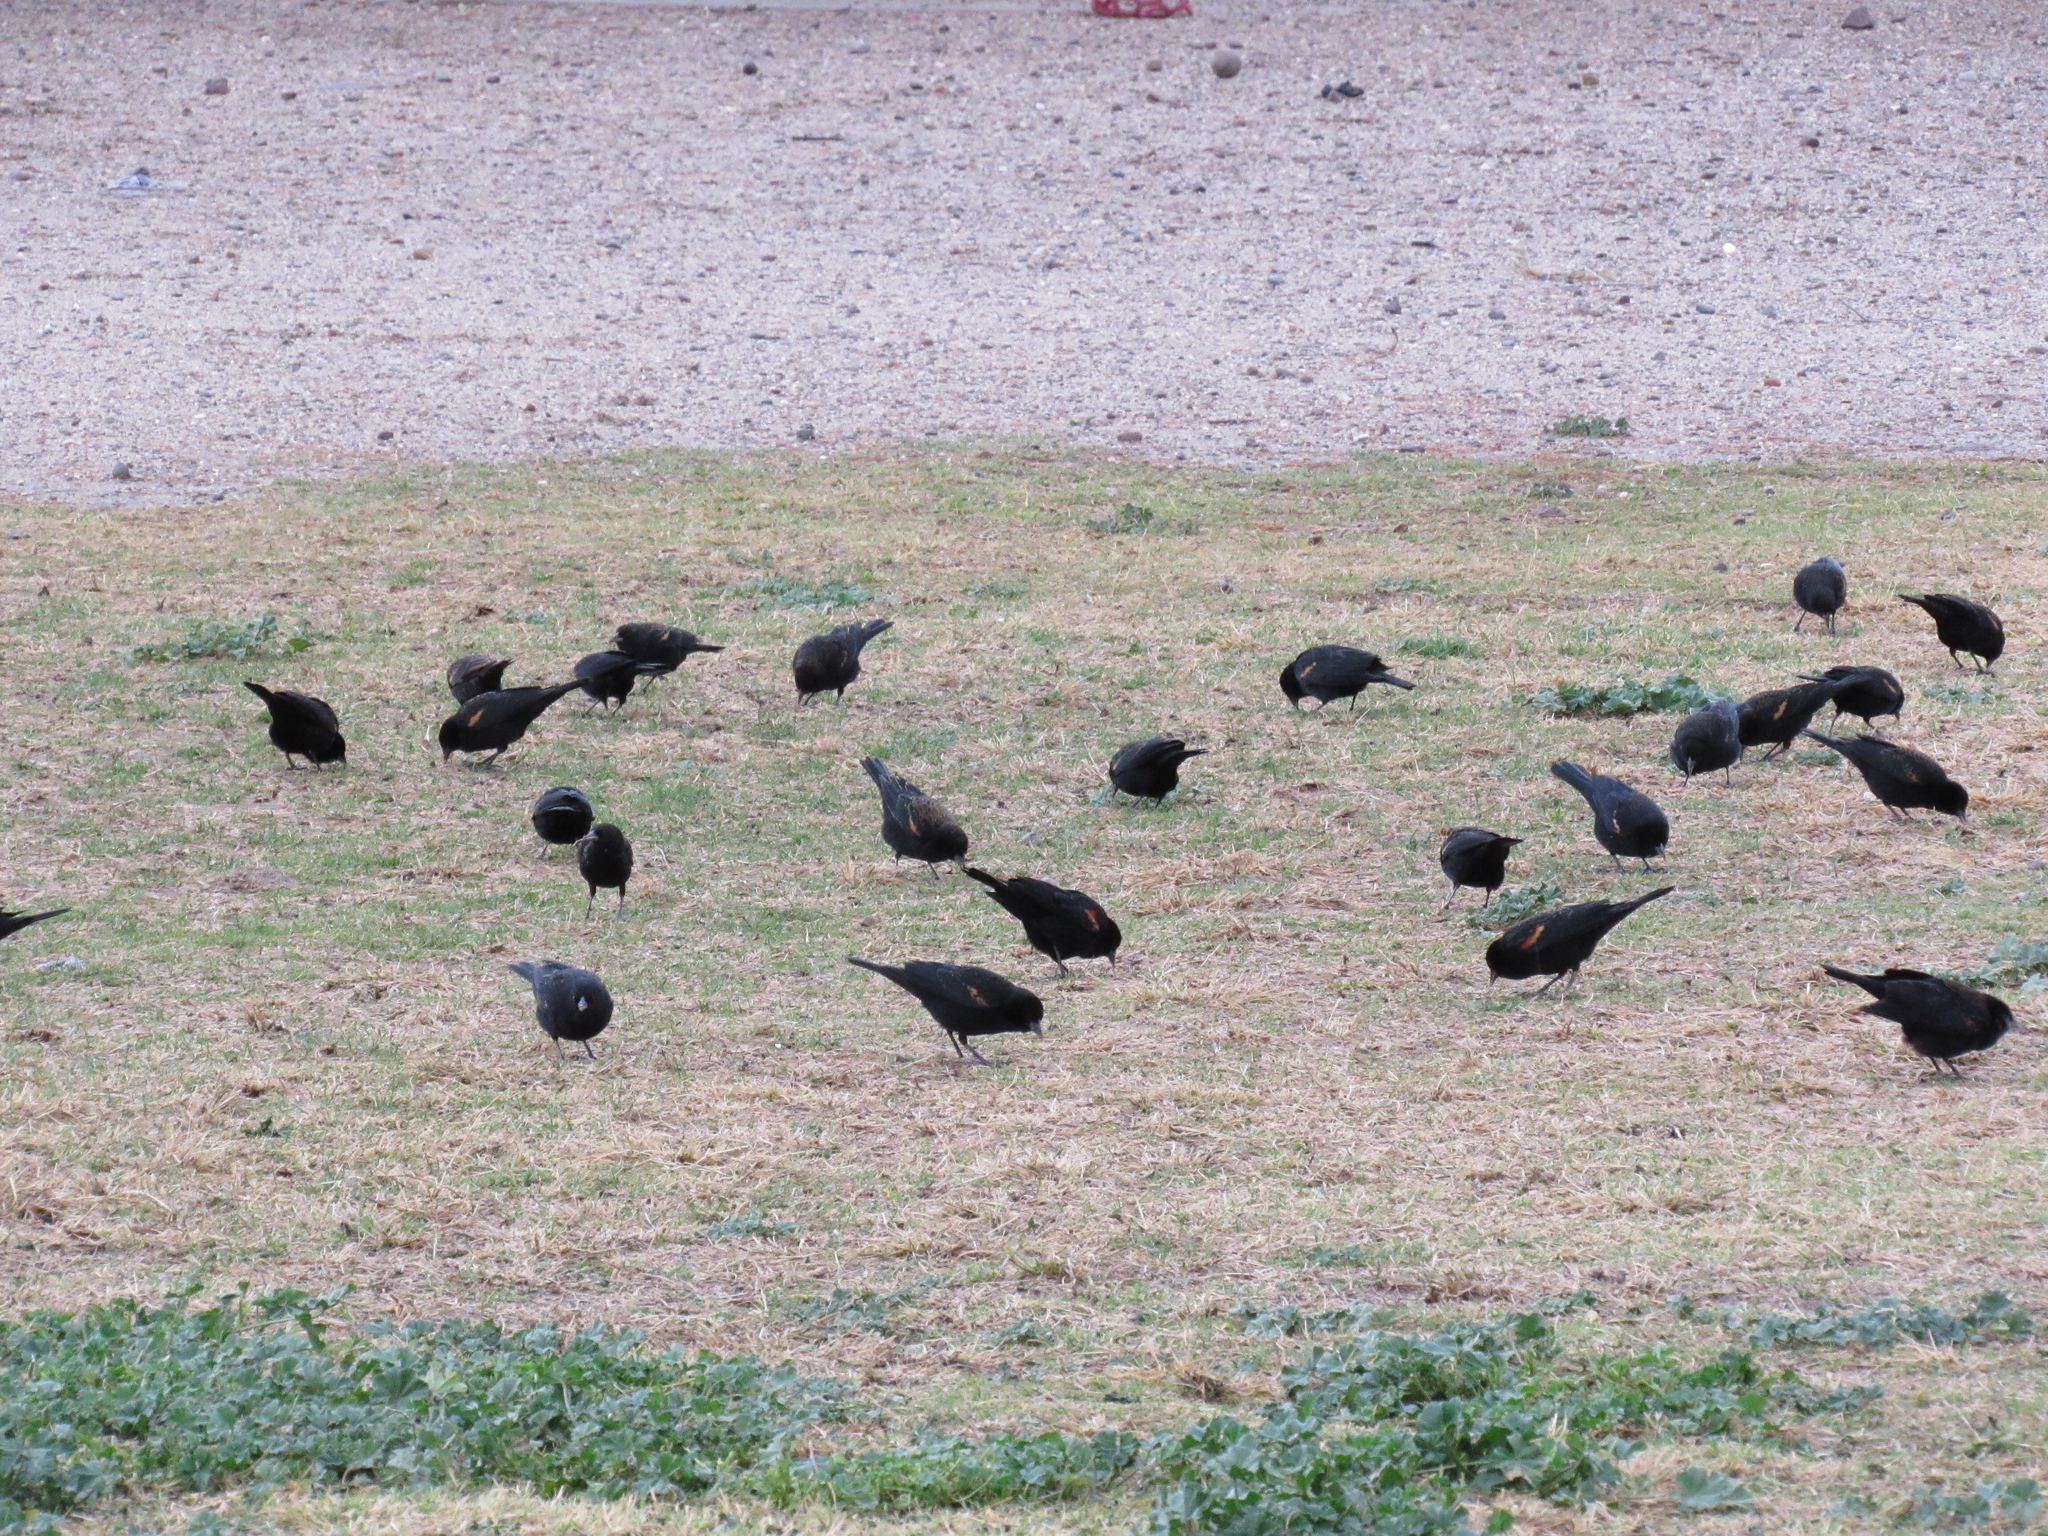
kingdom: Animalia
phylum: Chordata
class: Aves
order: Passeriformes
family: Icteridae
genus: Agelaius
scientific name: Agelaius phoeniceus
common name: Red-winged blackbird
